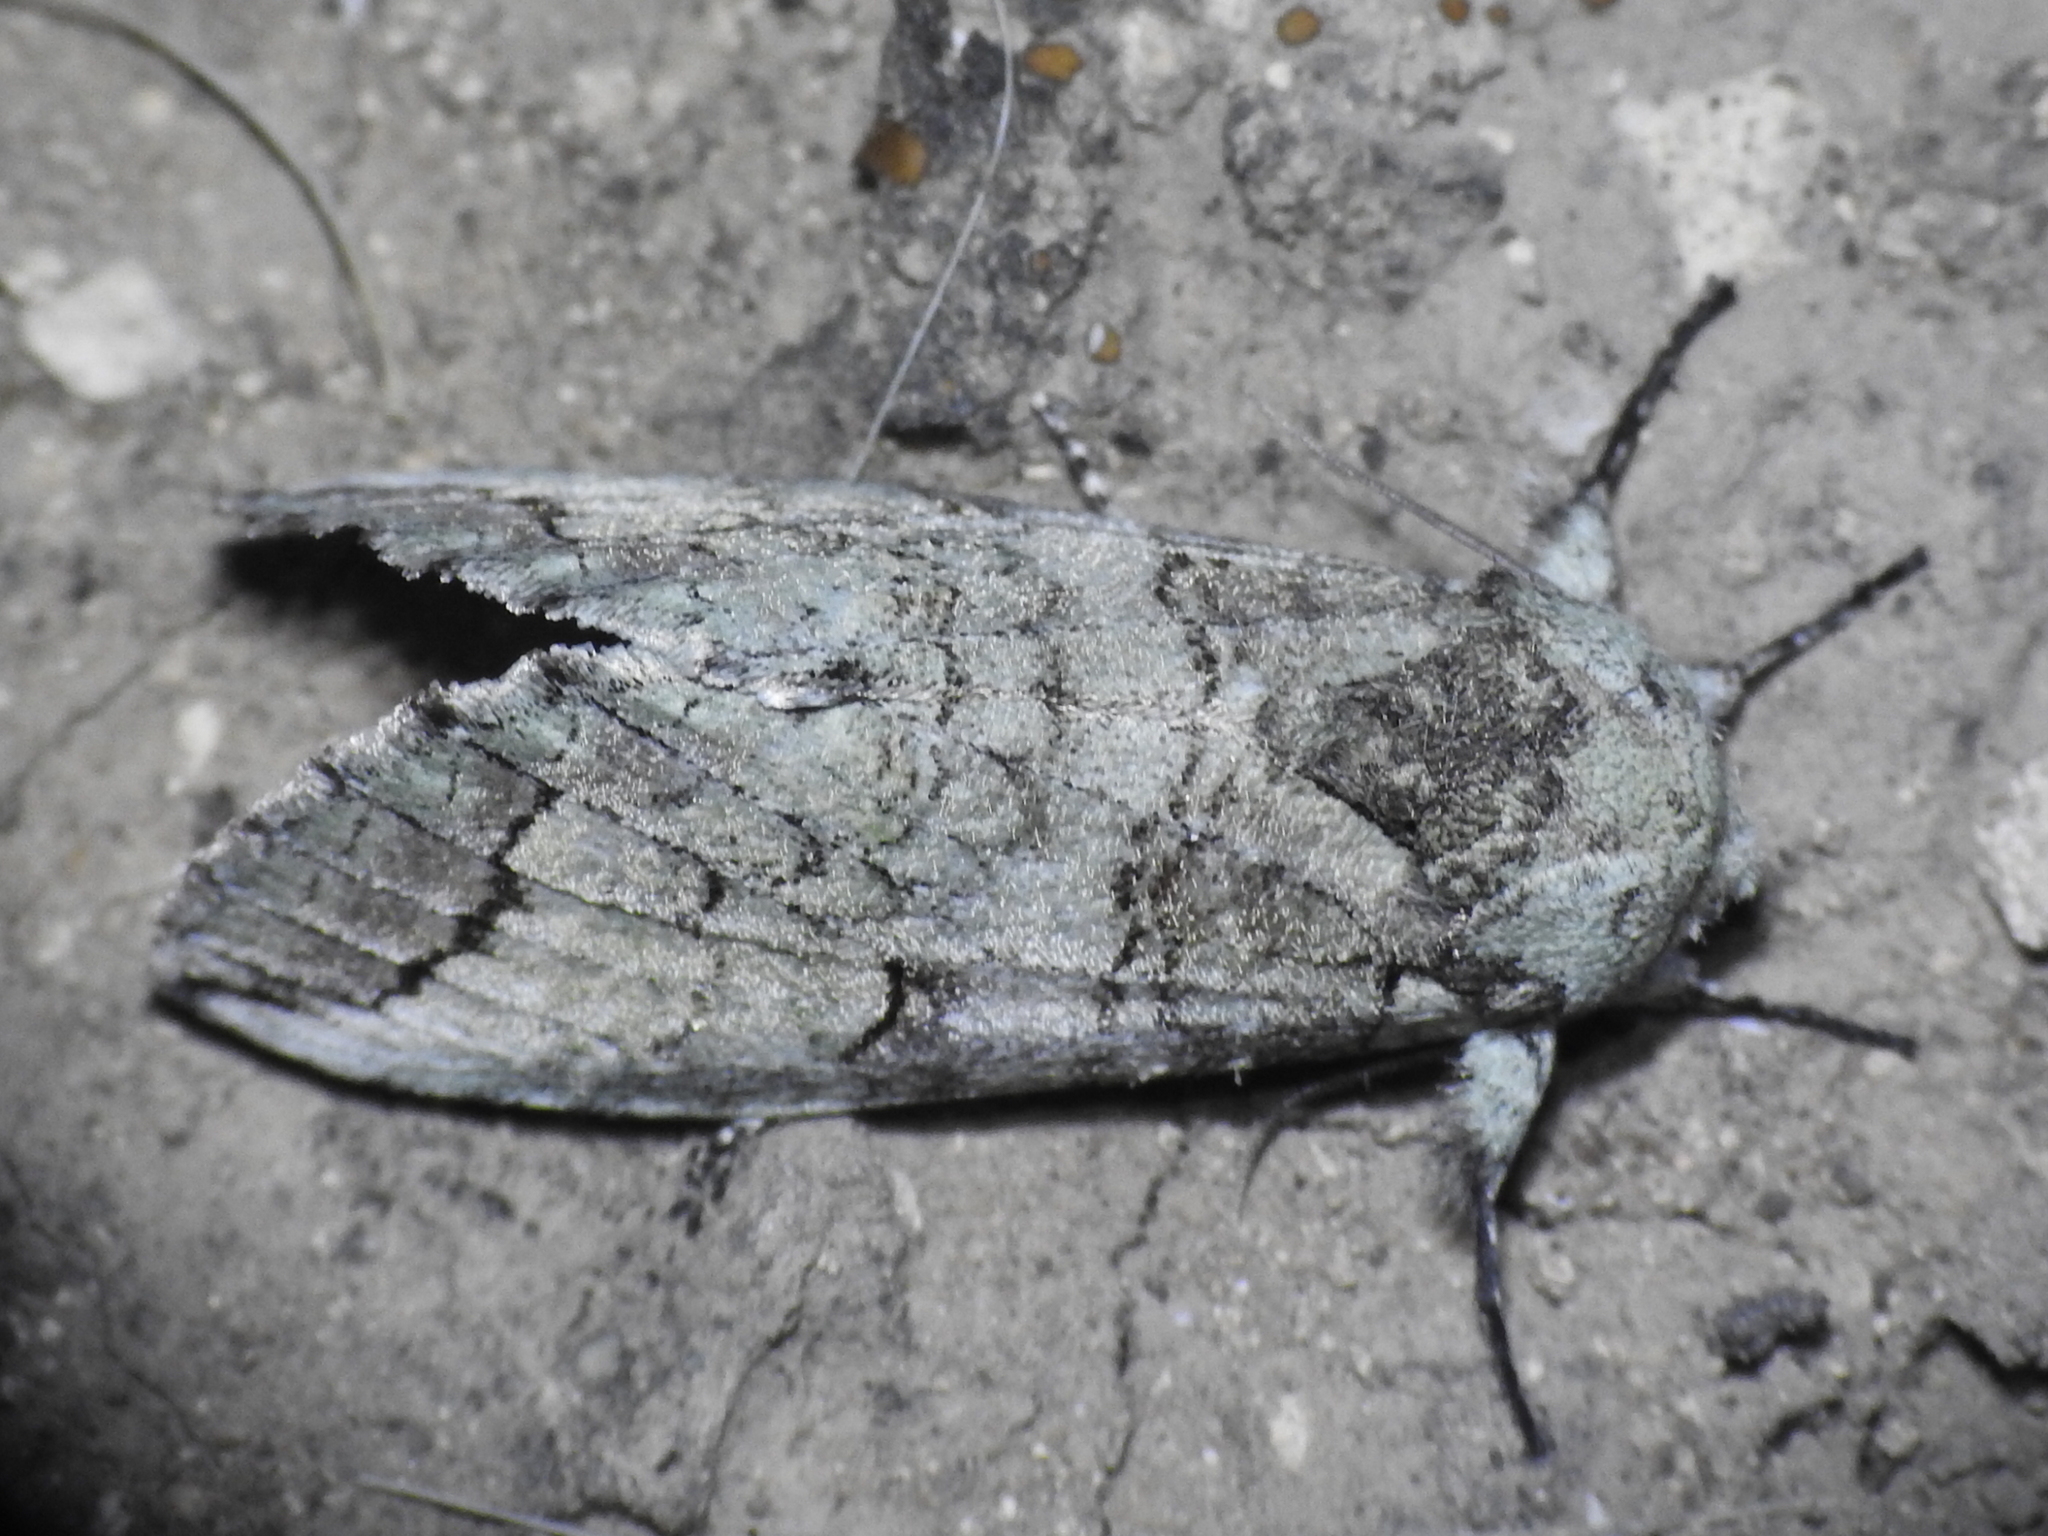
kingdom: Animalia
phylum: Arthropoda
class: Insecta
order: Lepidoptera
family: Notodontidae
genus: Heterocampa
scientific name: Heterocampa astartoides
